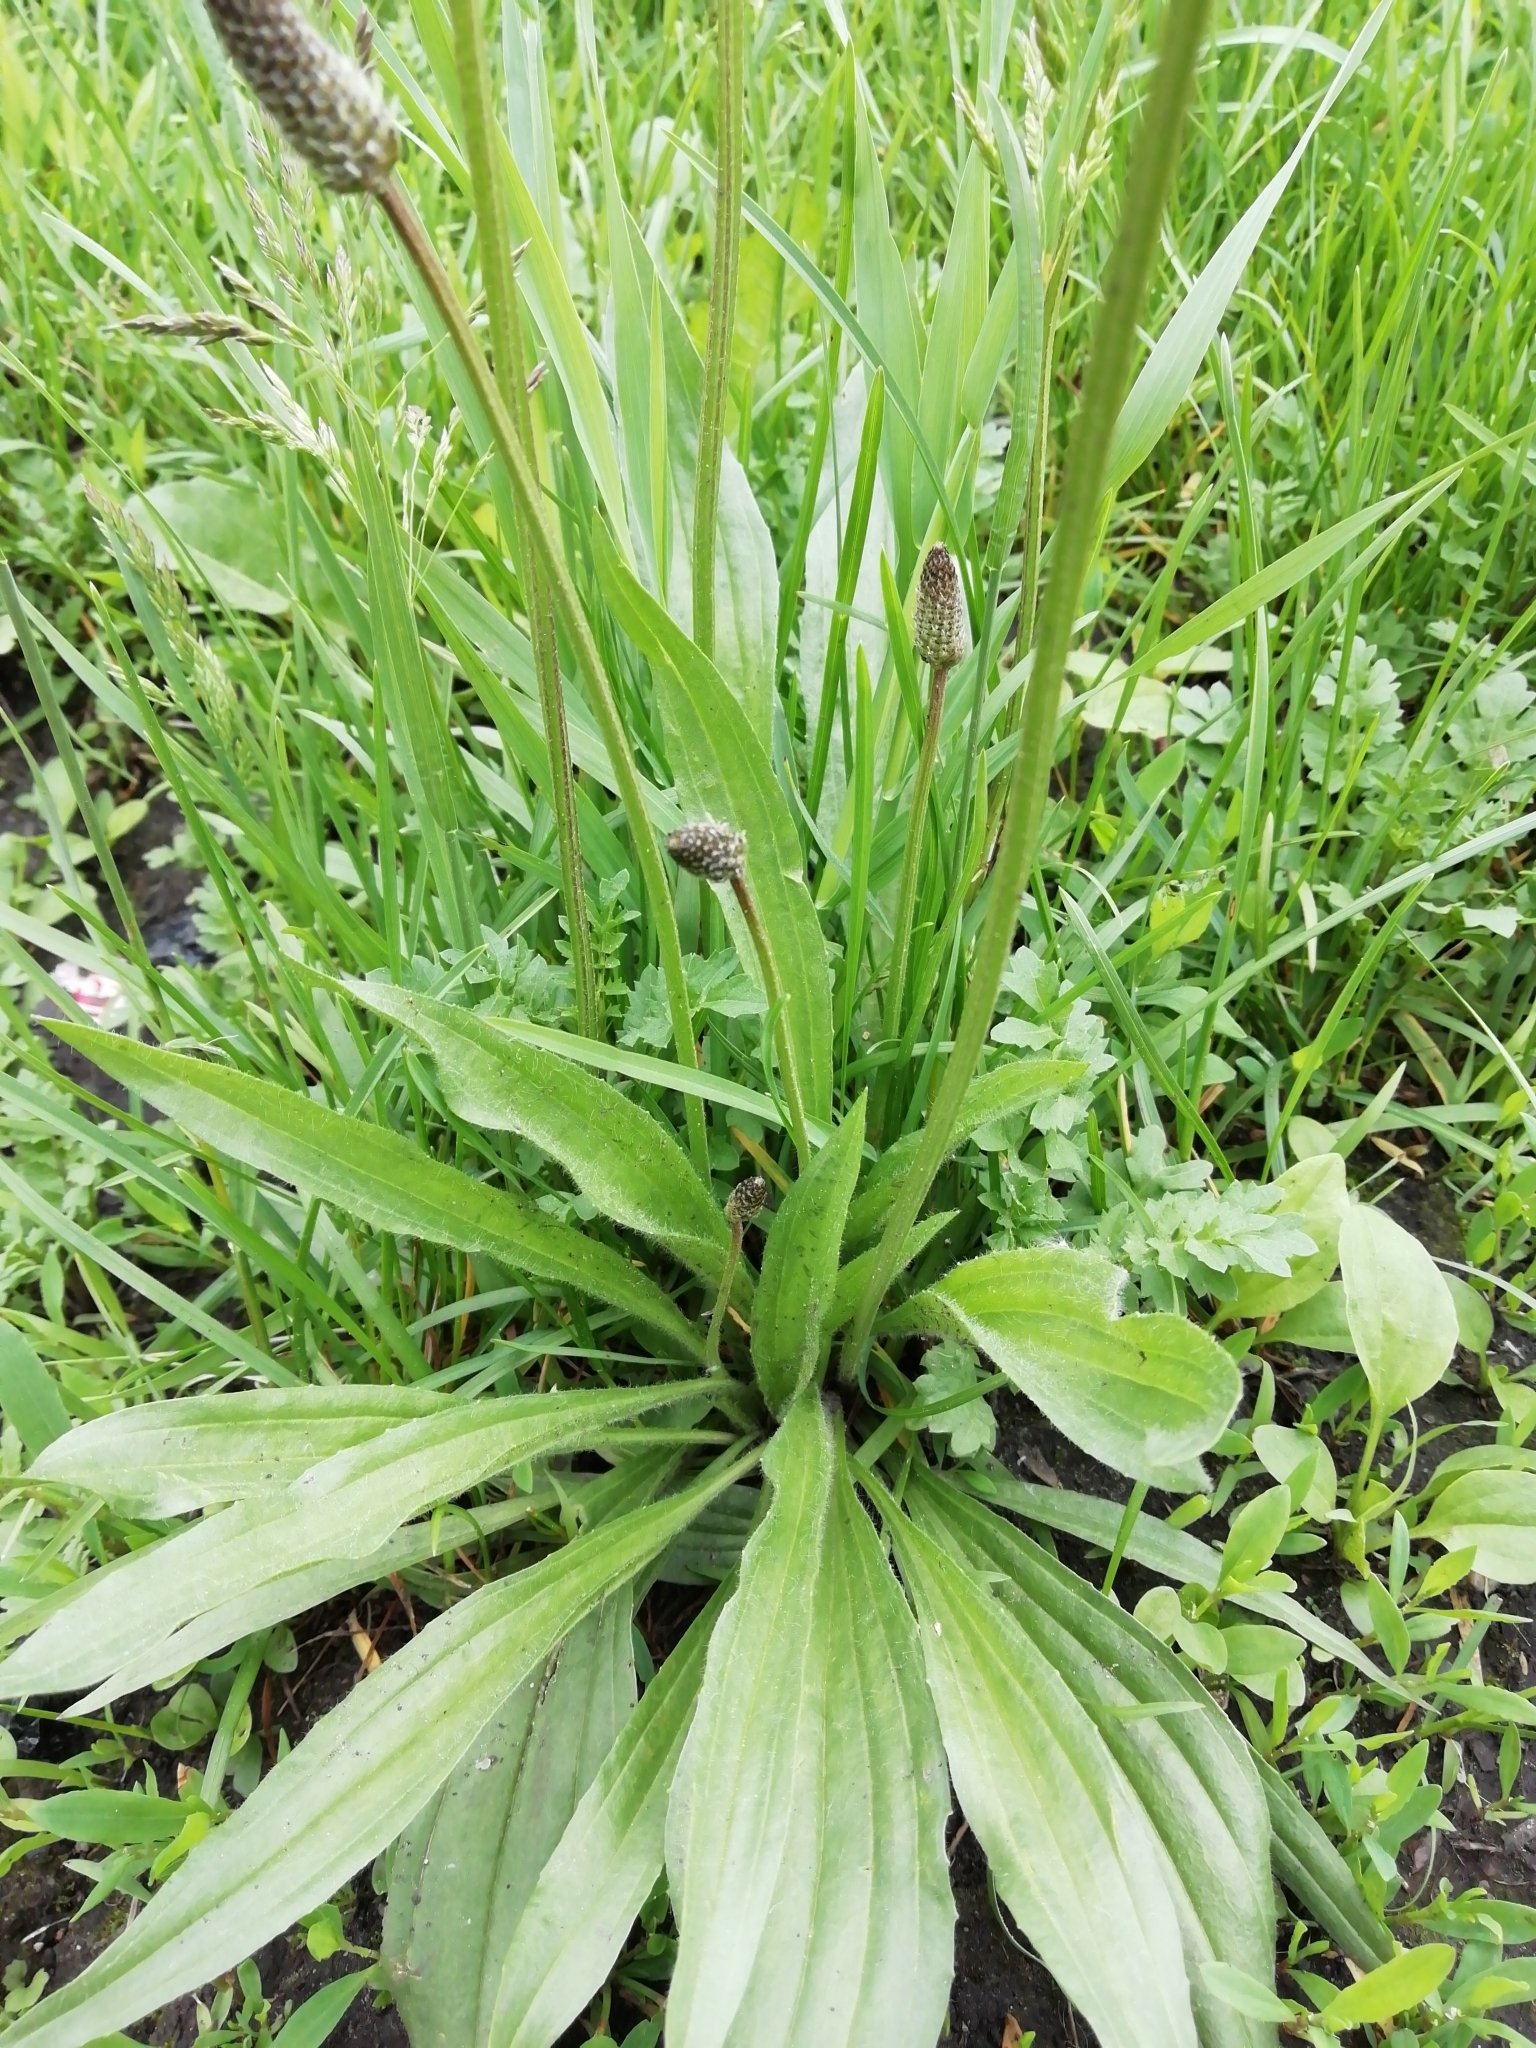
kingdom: Plantae
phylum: Tracheophyta
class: Magnoliopsida
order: Lamiales
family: Plantaginaceae
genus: Plantago
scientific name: Plantago lanceolata
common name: Ribwort plantain
